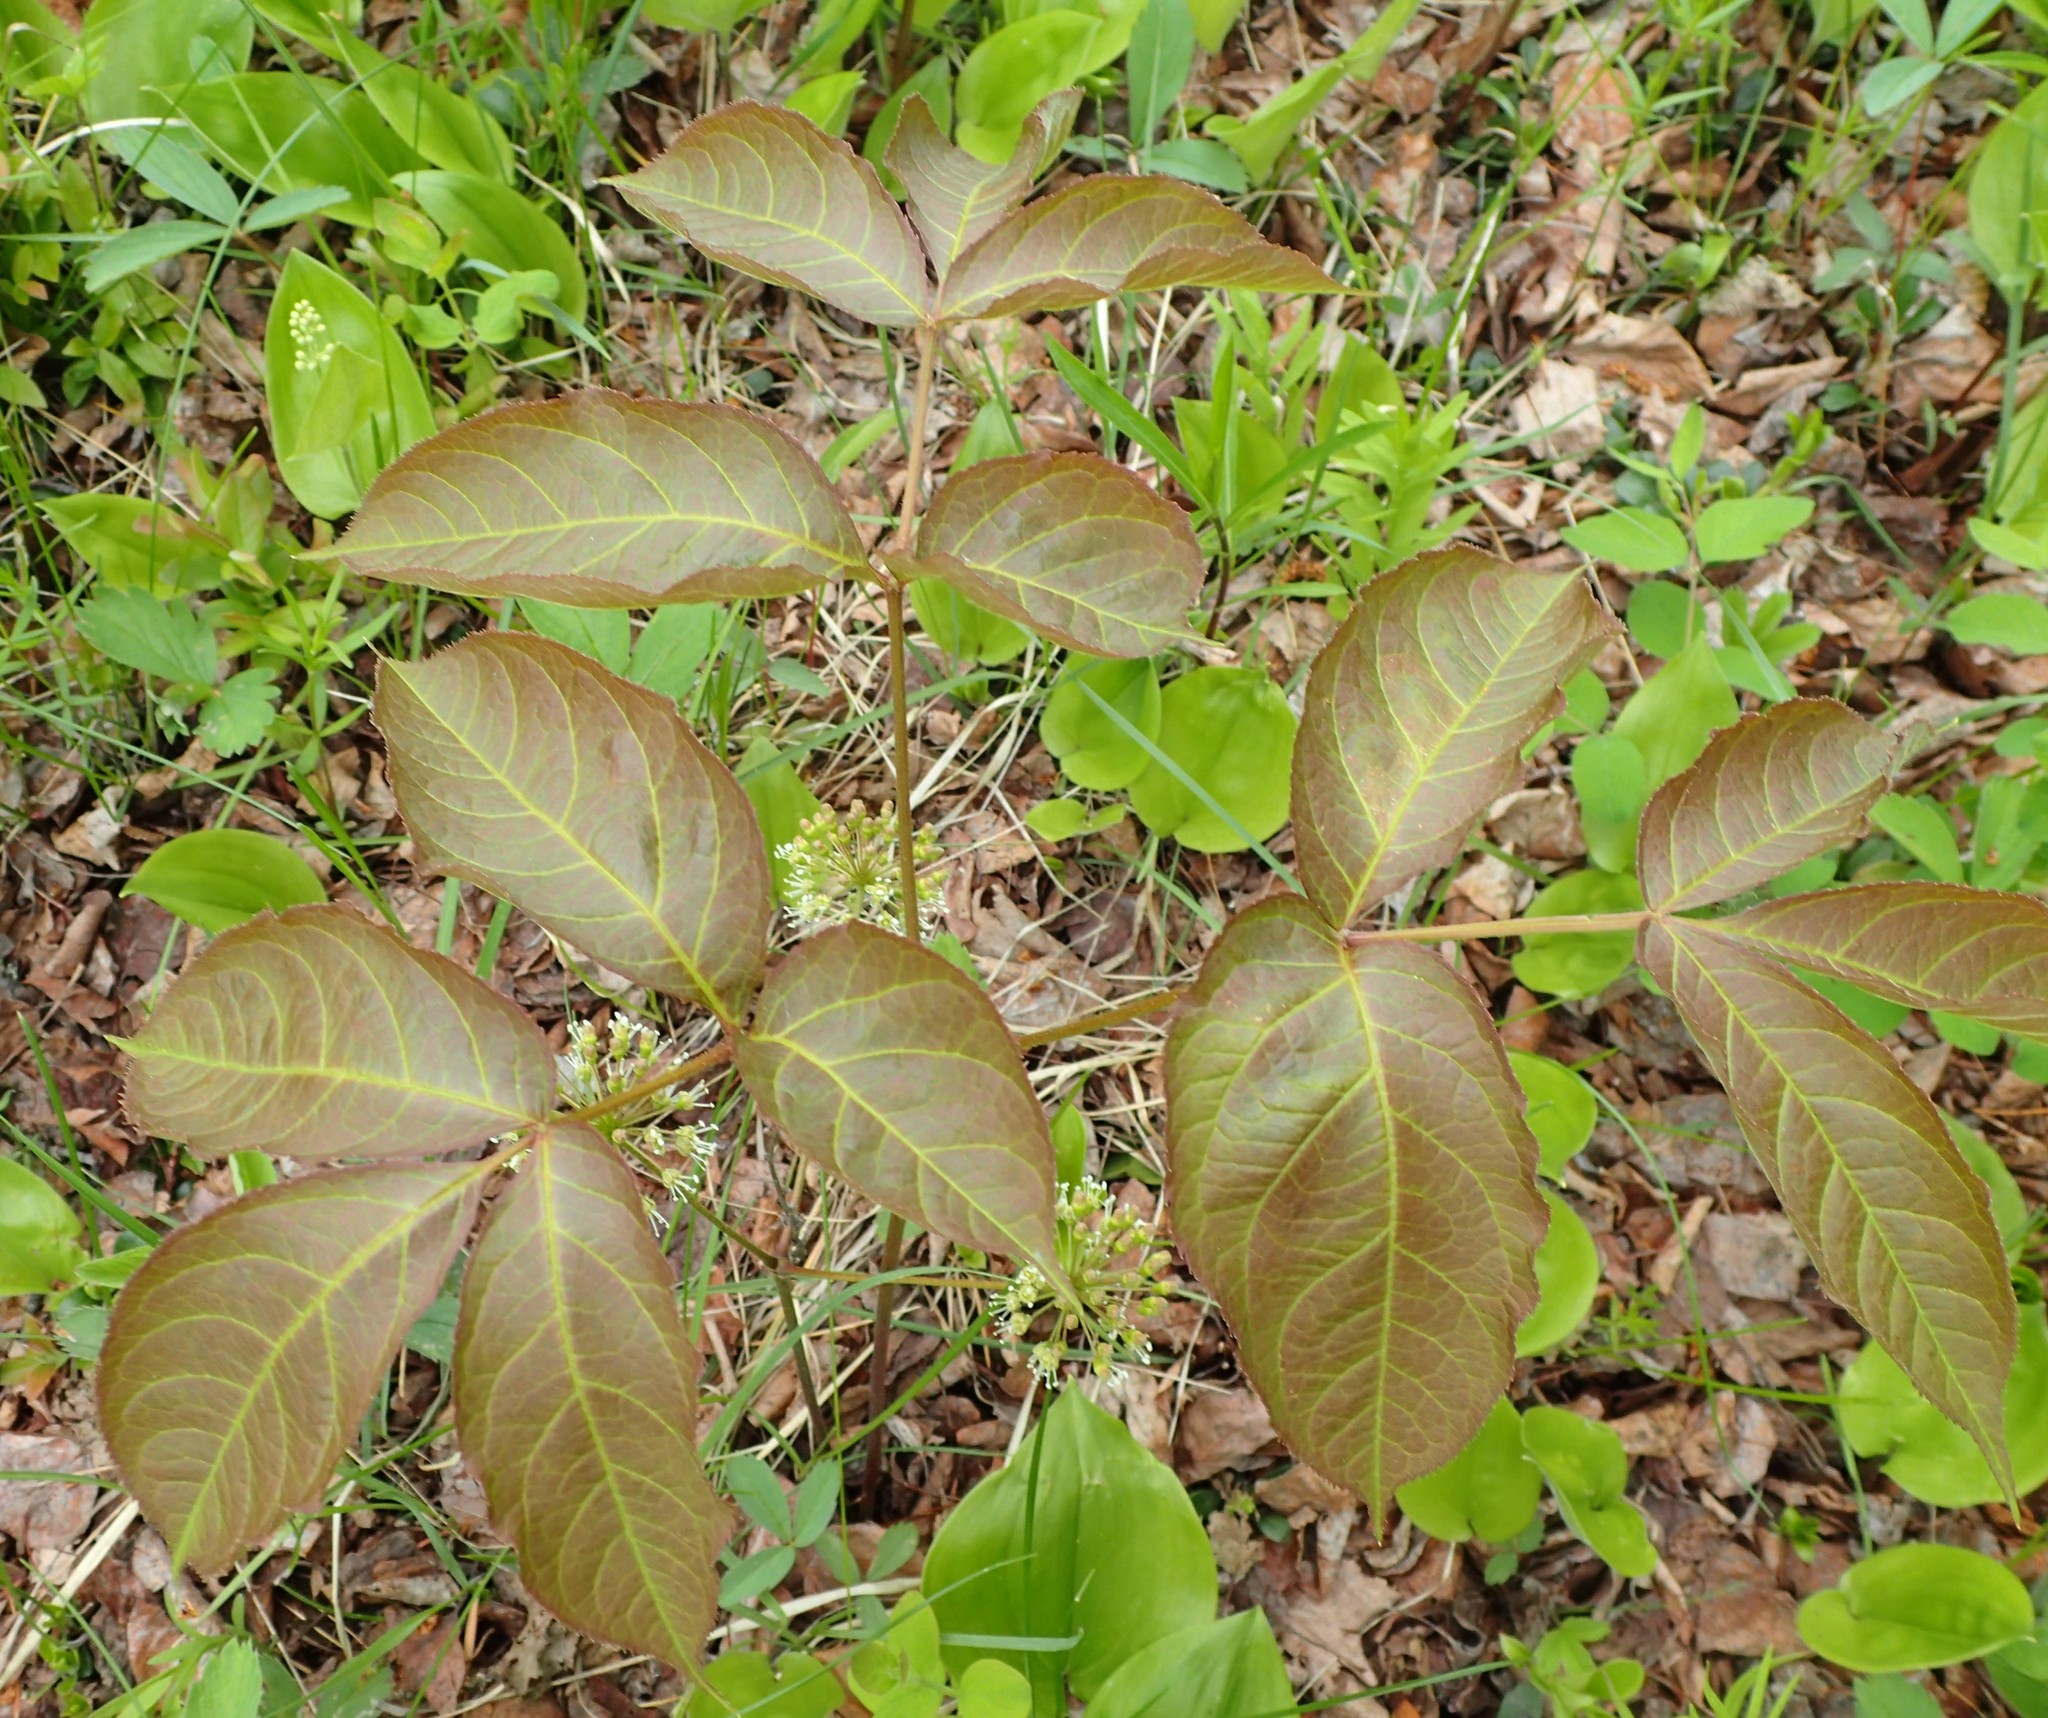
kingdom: Plantae
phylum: Tracheophyta
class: Magnoliopsida
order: Apiales
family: Araliaceae
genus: Aralia
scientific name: Aralia nudicaulis
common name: Wild sarsaparilla
